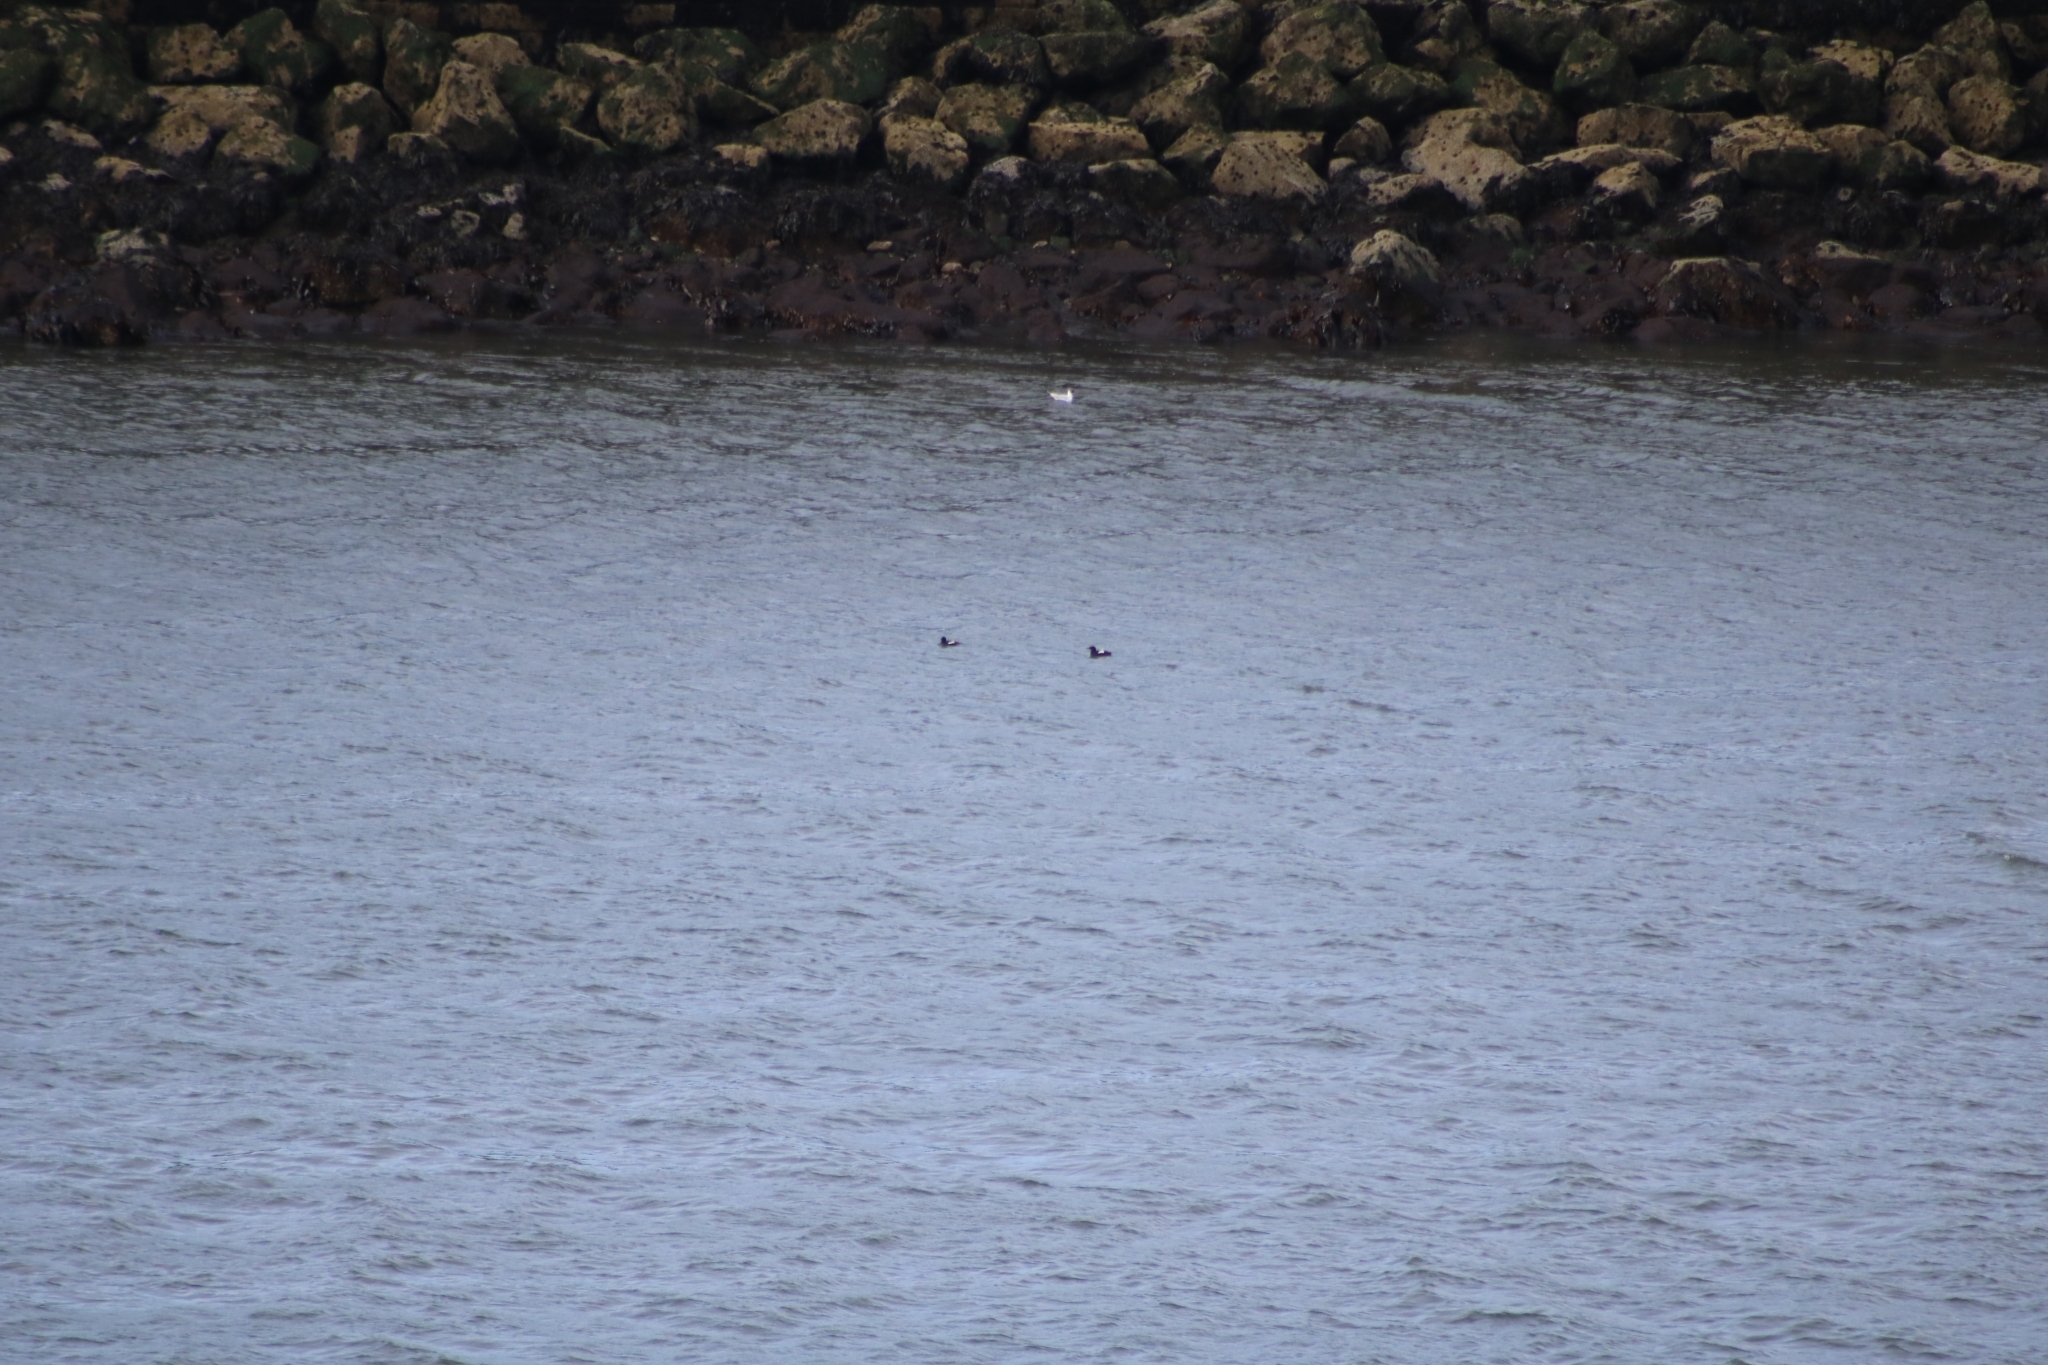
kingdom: Animalia
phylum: Chordata
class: Aves
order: Charadriiformes
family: Alcidae
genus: Cepphus
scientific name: Cepphus grylle
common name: Black guillemot
